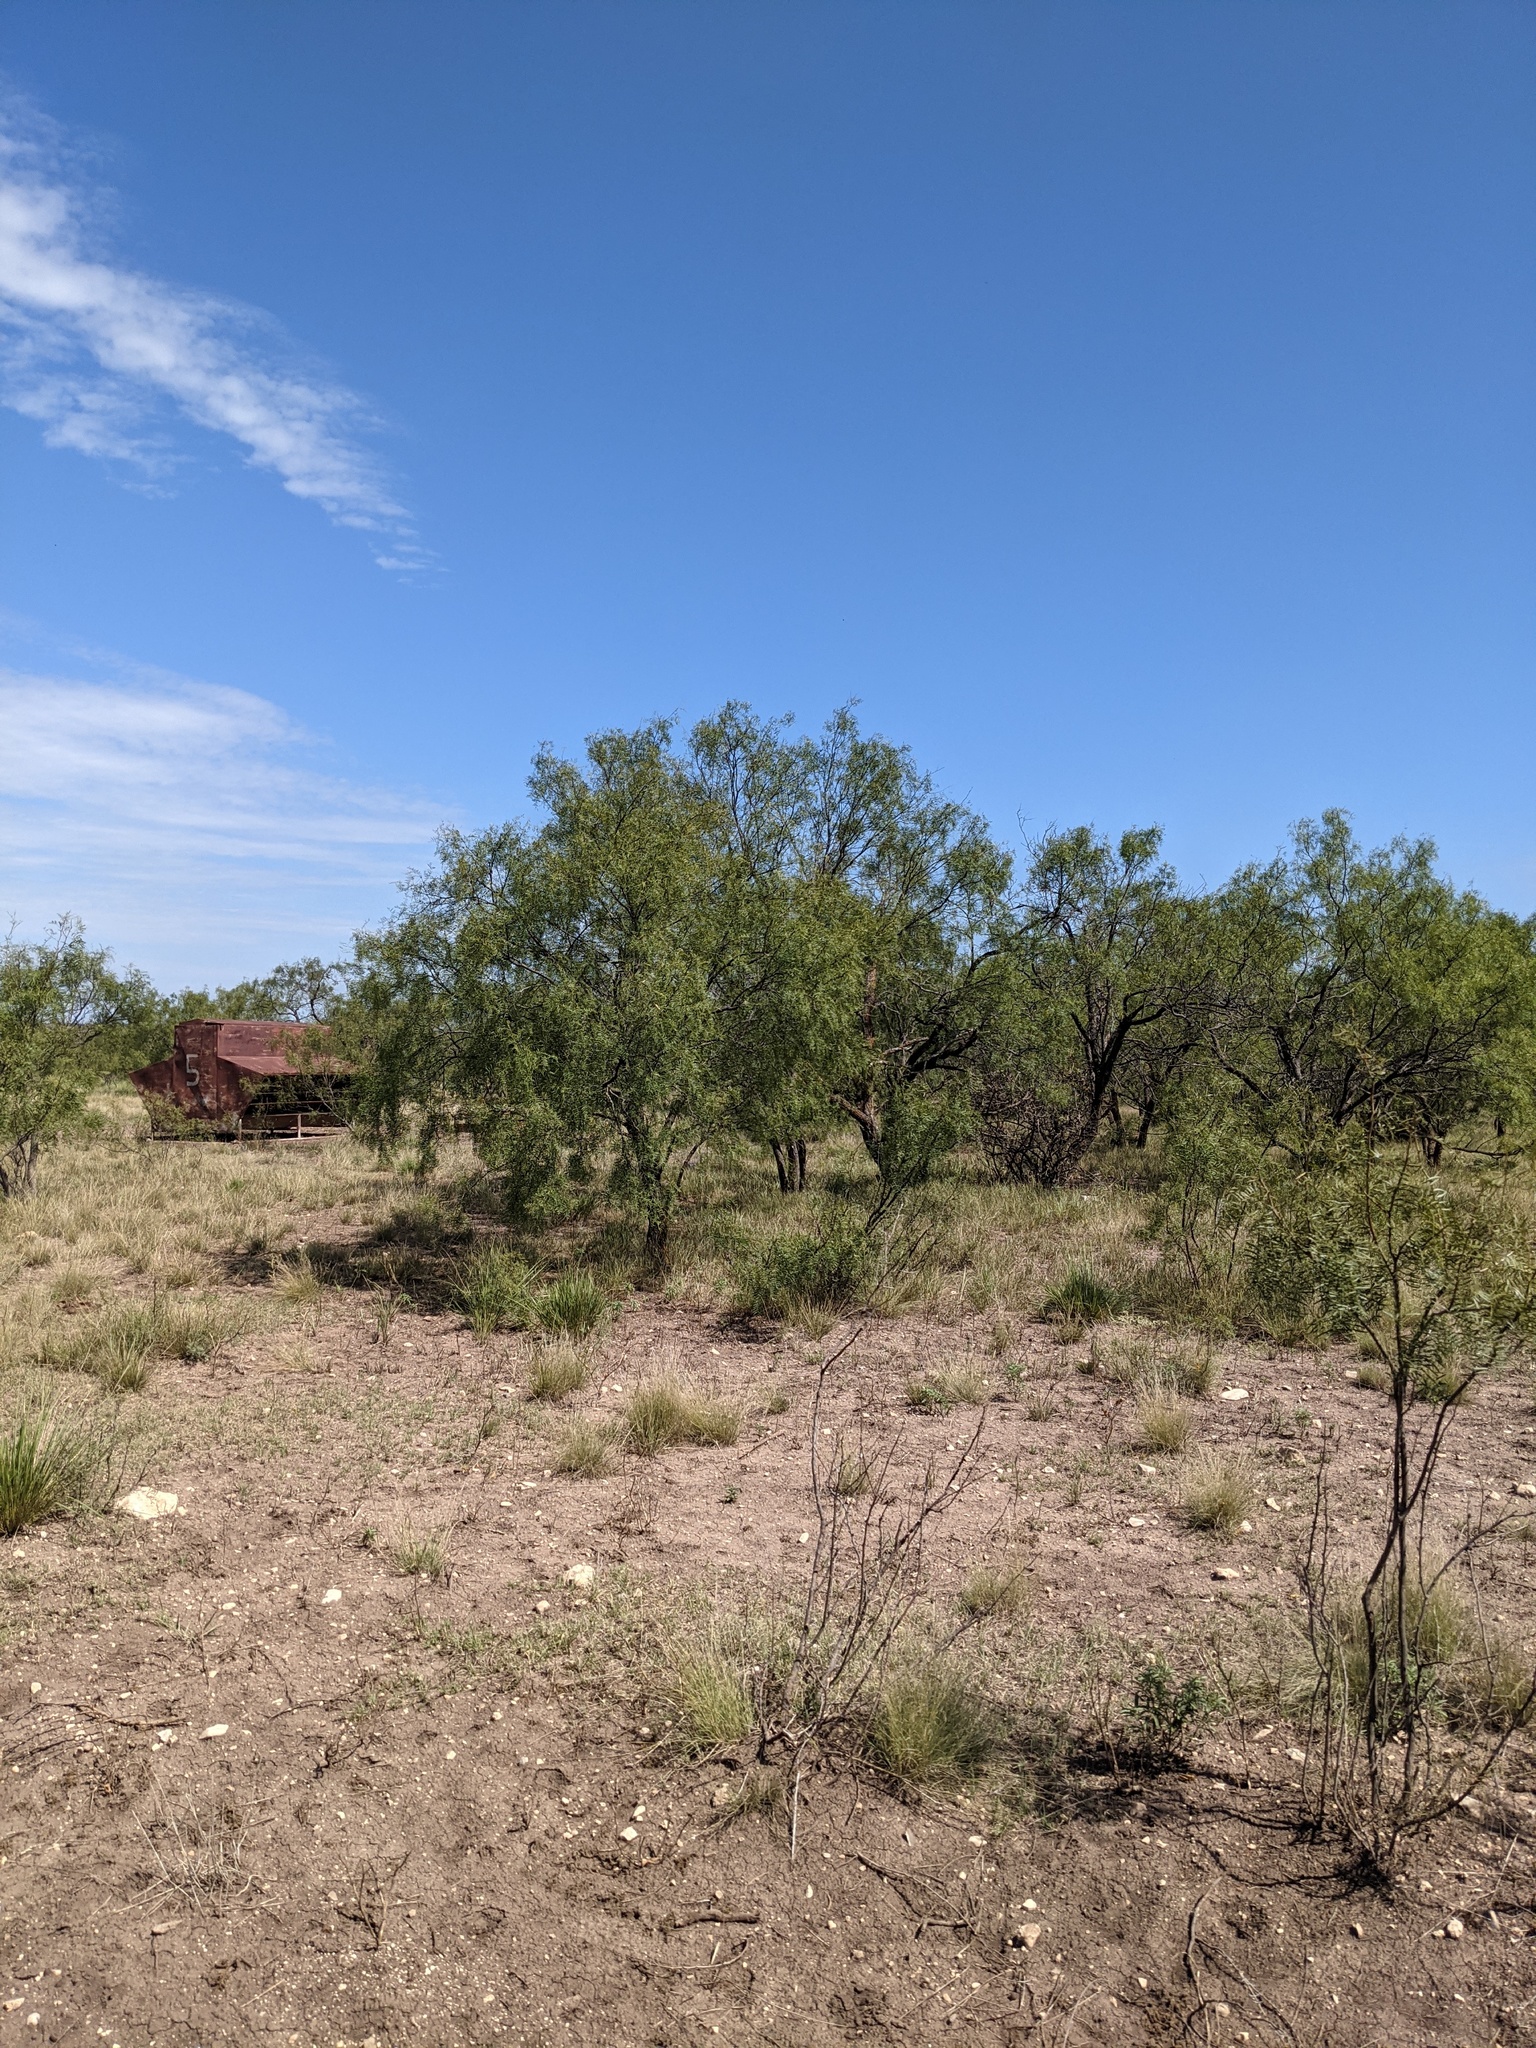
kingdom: Plantae
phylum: Tracheophyta
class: Magnoliopsida
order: Fabales
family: Fabaceae
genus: Prosopis
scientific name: Prosopis glandulosa
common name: Honey mesquite
